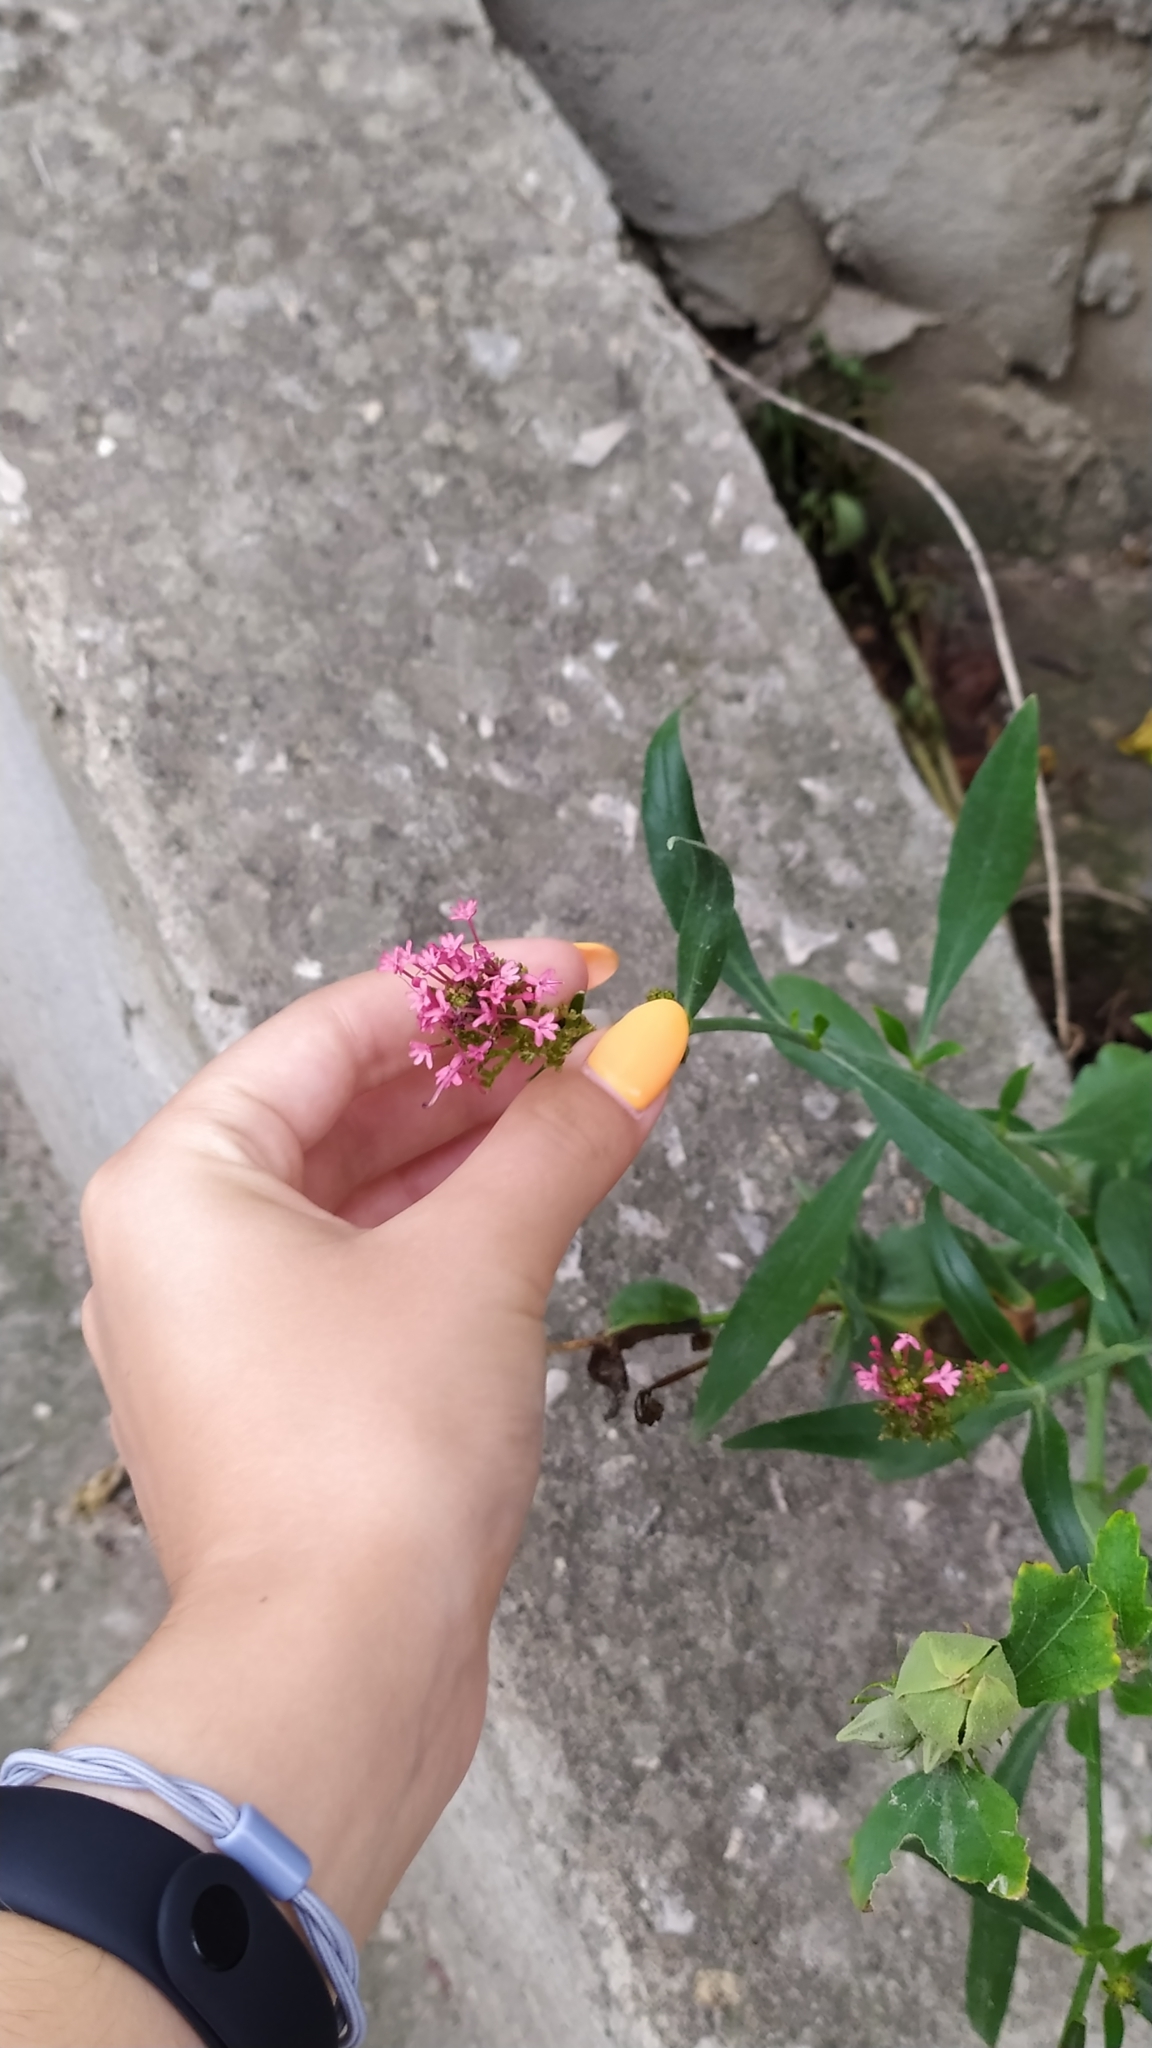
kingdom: Plantae
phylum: Tracheophyta
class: Magnoliopsida
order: Dipsacales
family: Caprifoliaceae
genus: Centranthus
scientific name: Centranthus ruber
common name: Red valerian
